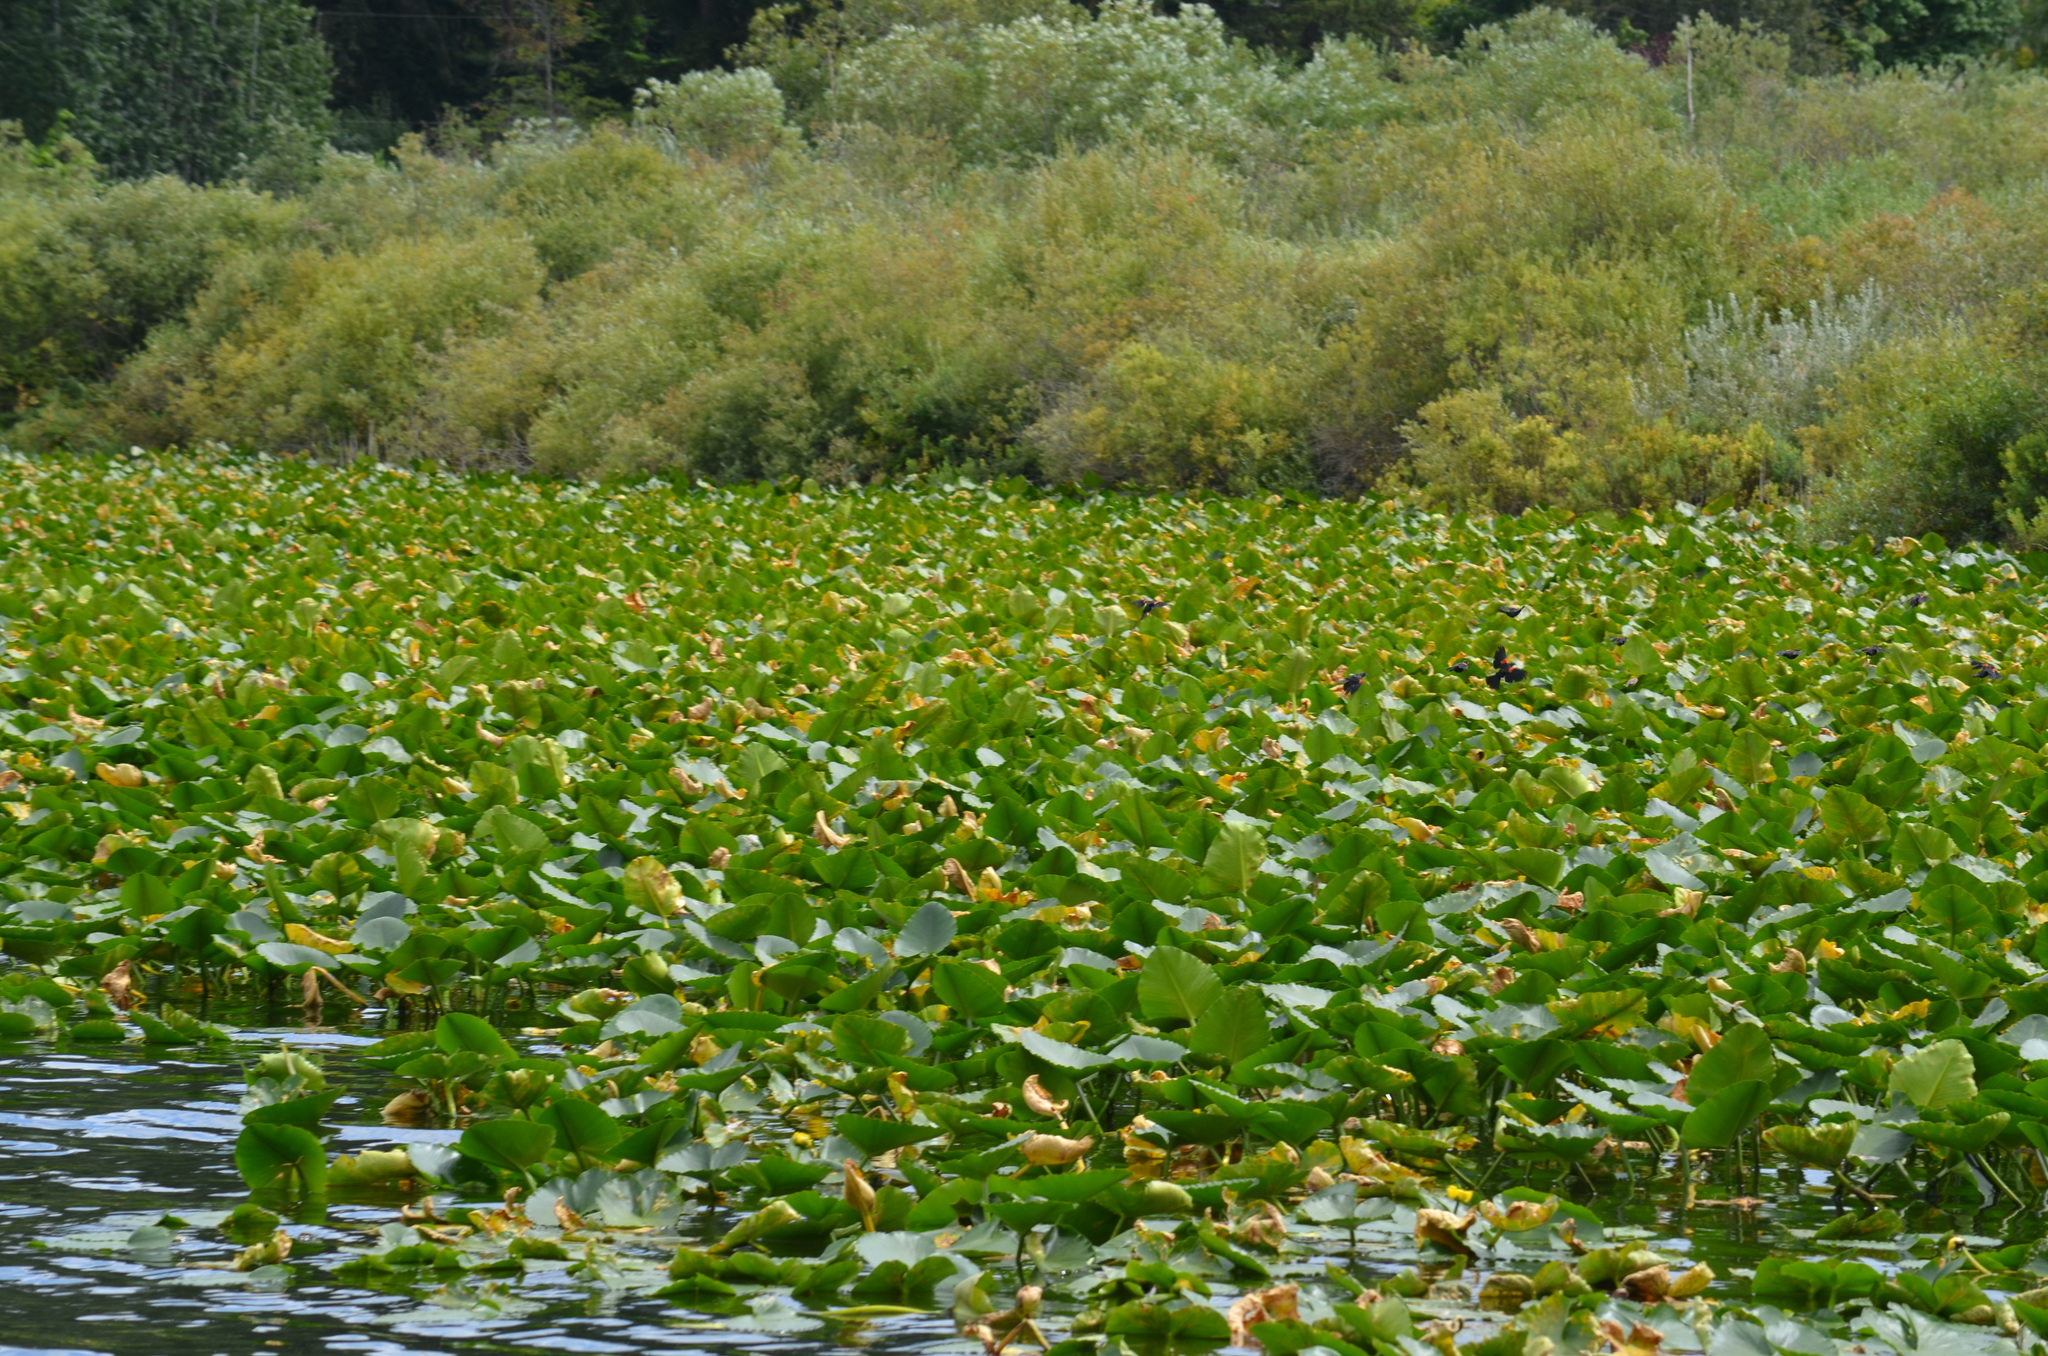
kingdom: Animalia
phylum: Chordata
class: Aves
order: Passeriformes
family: Icteridae
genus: Agelaius
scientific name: Agelaius phoeniceus
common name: Red-winged blackbird
